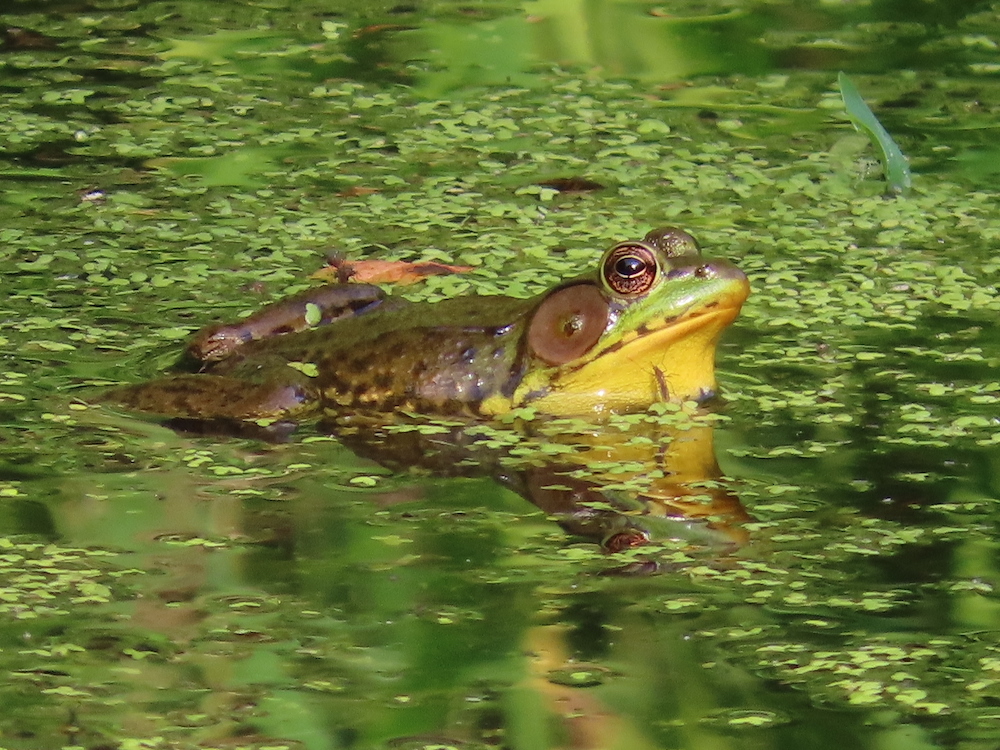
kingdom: Animalia
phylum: Chordata
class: Amphibia
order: Anura
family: Ranidae
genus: Lithobates
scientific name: Lithobates clamitans
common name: Green frog
